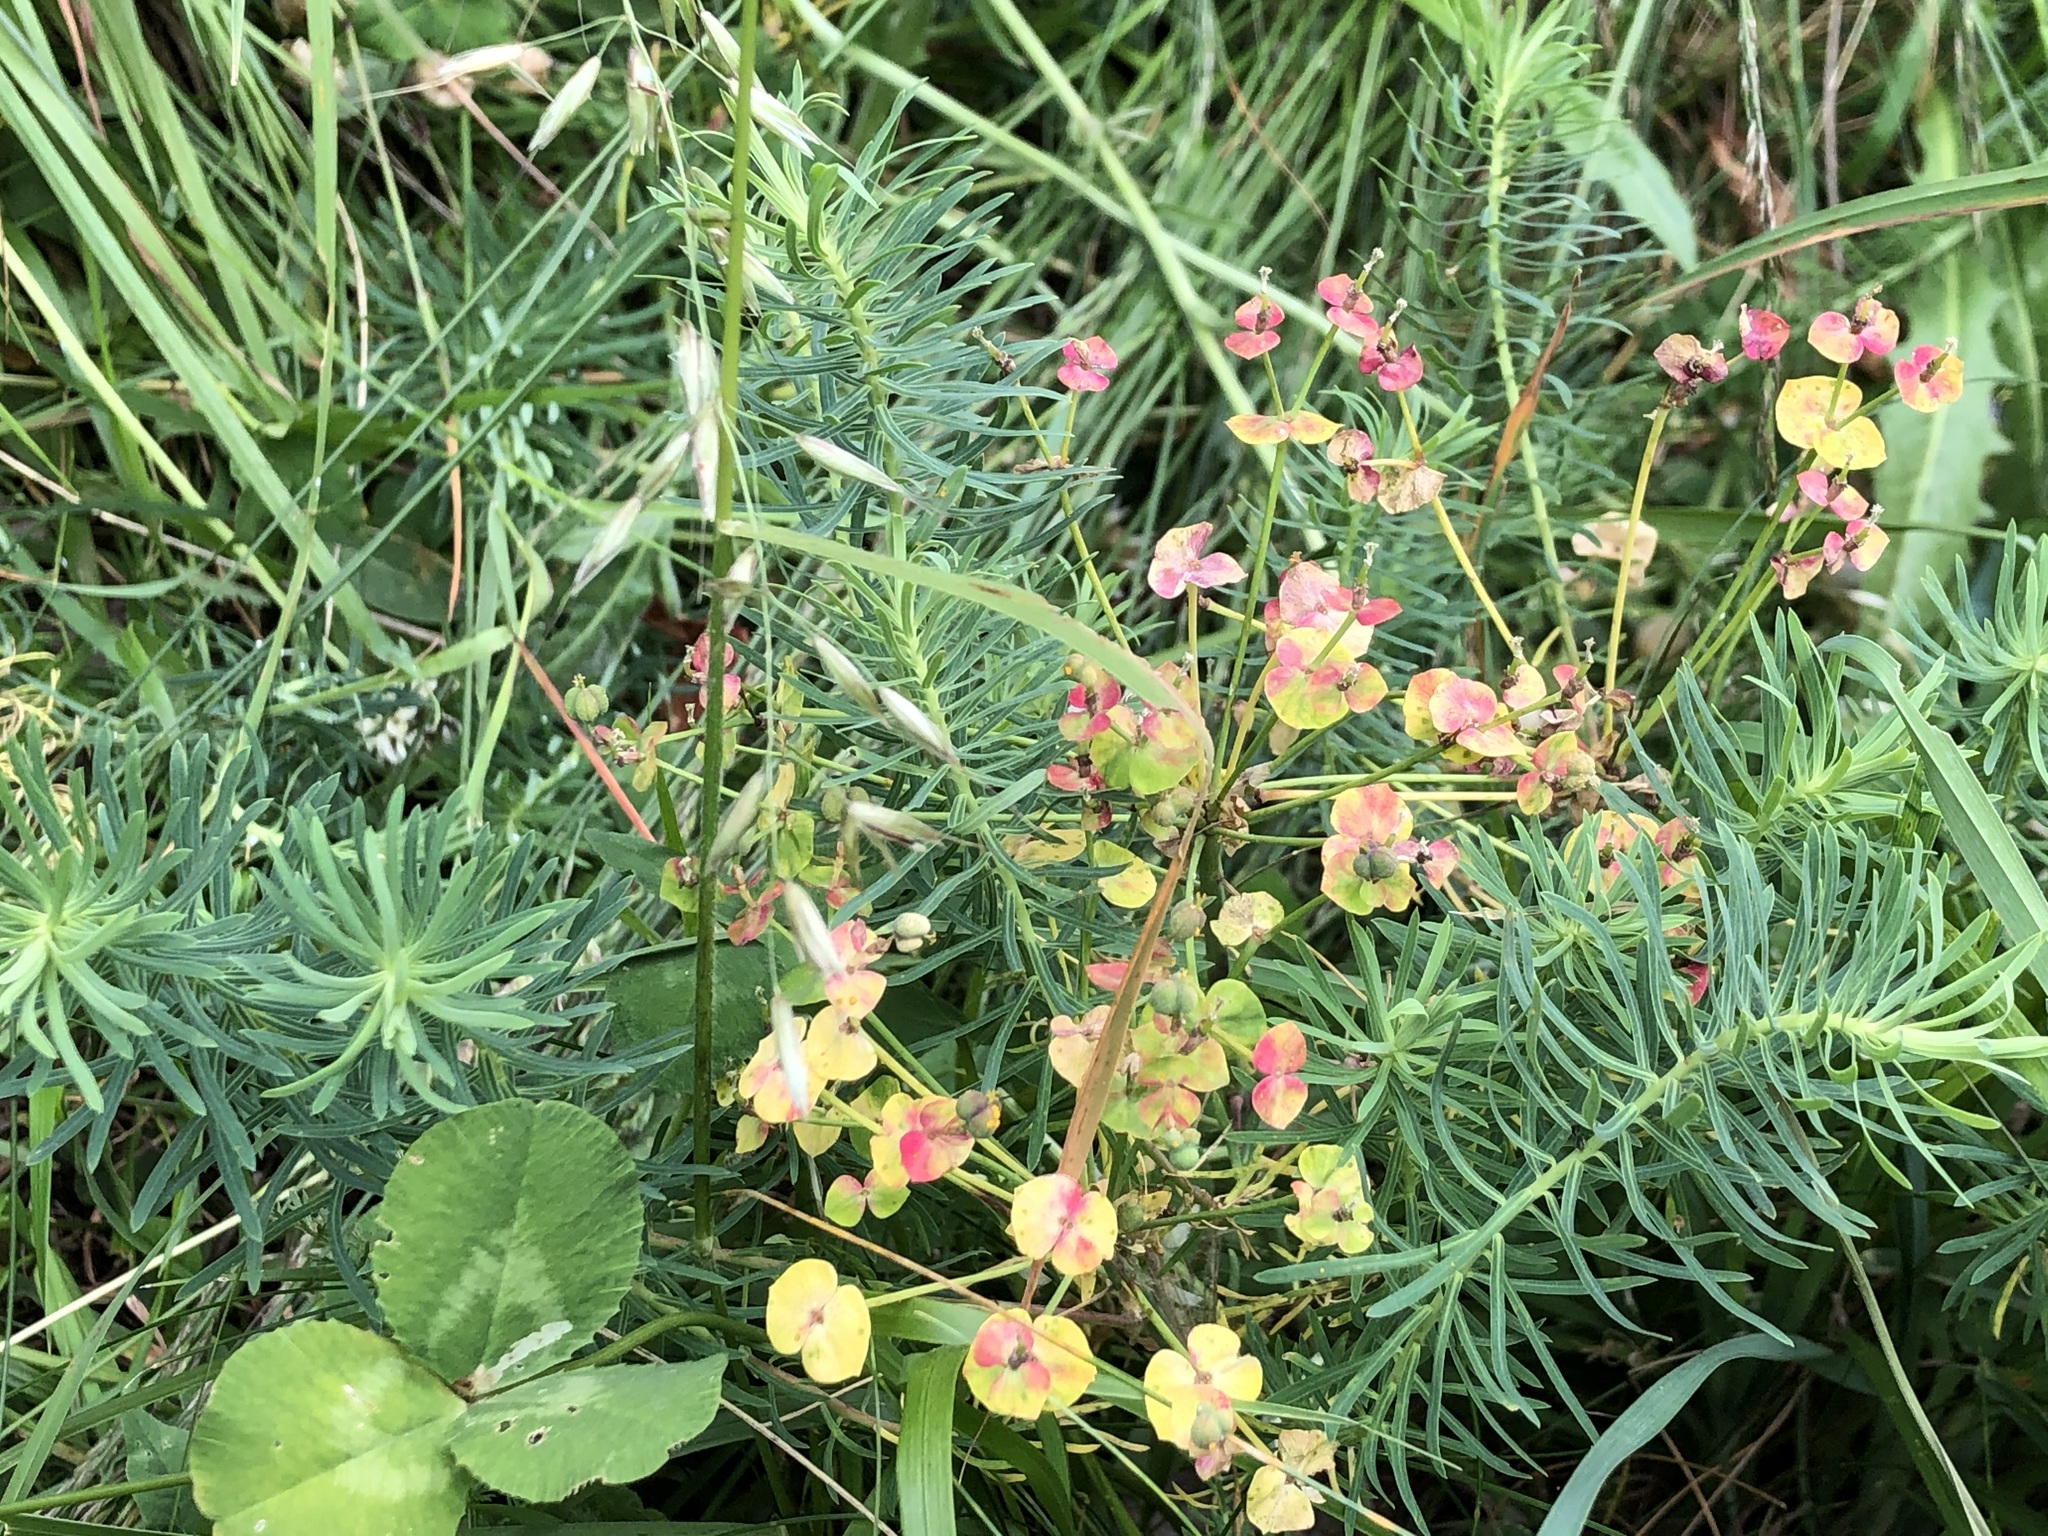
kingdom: Plantae
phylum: Tracheophyta
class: Magnoliopsida
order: Malpighiales
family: Euphorbiaceae
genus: Euphorbia
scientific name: Euphorbia cyparissias
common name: Cypress spurge
